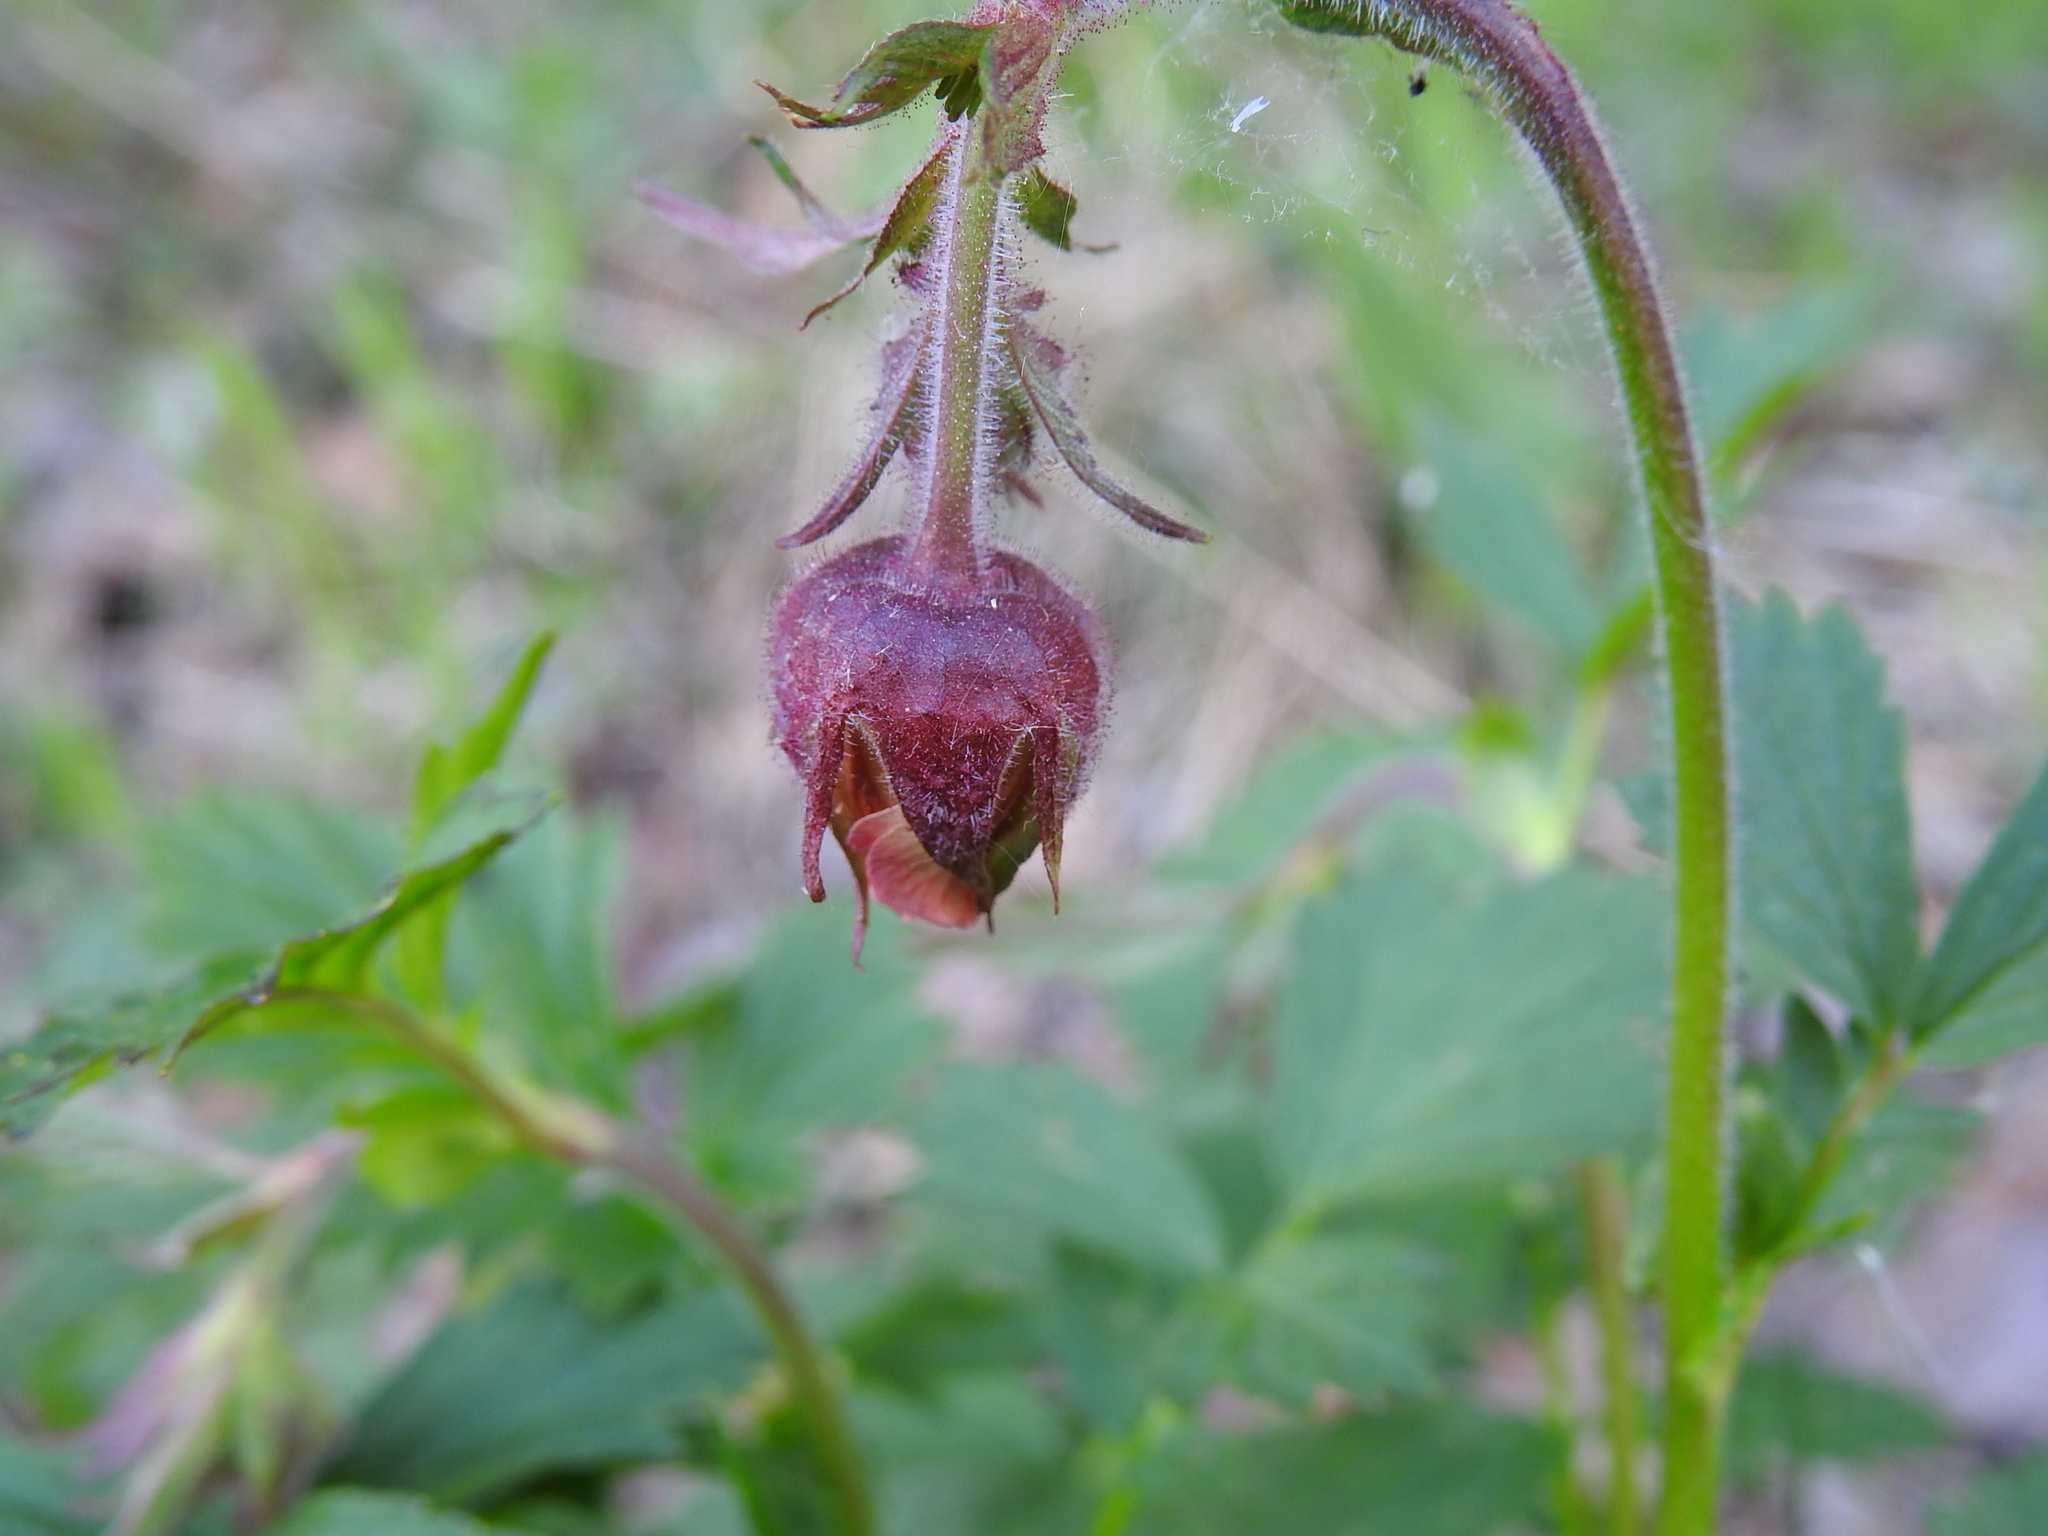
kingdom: Plantae
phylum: Tracheophyta
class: Magnoliopsida
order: Rosales
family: Rosaceae
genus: Geum
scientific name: Geum rivale
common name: Water avens
